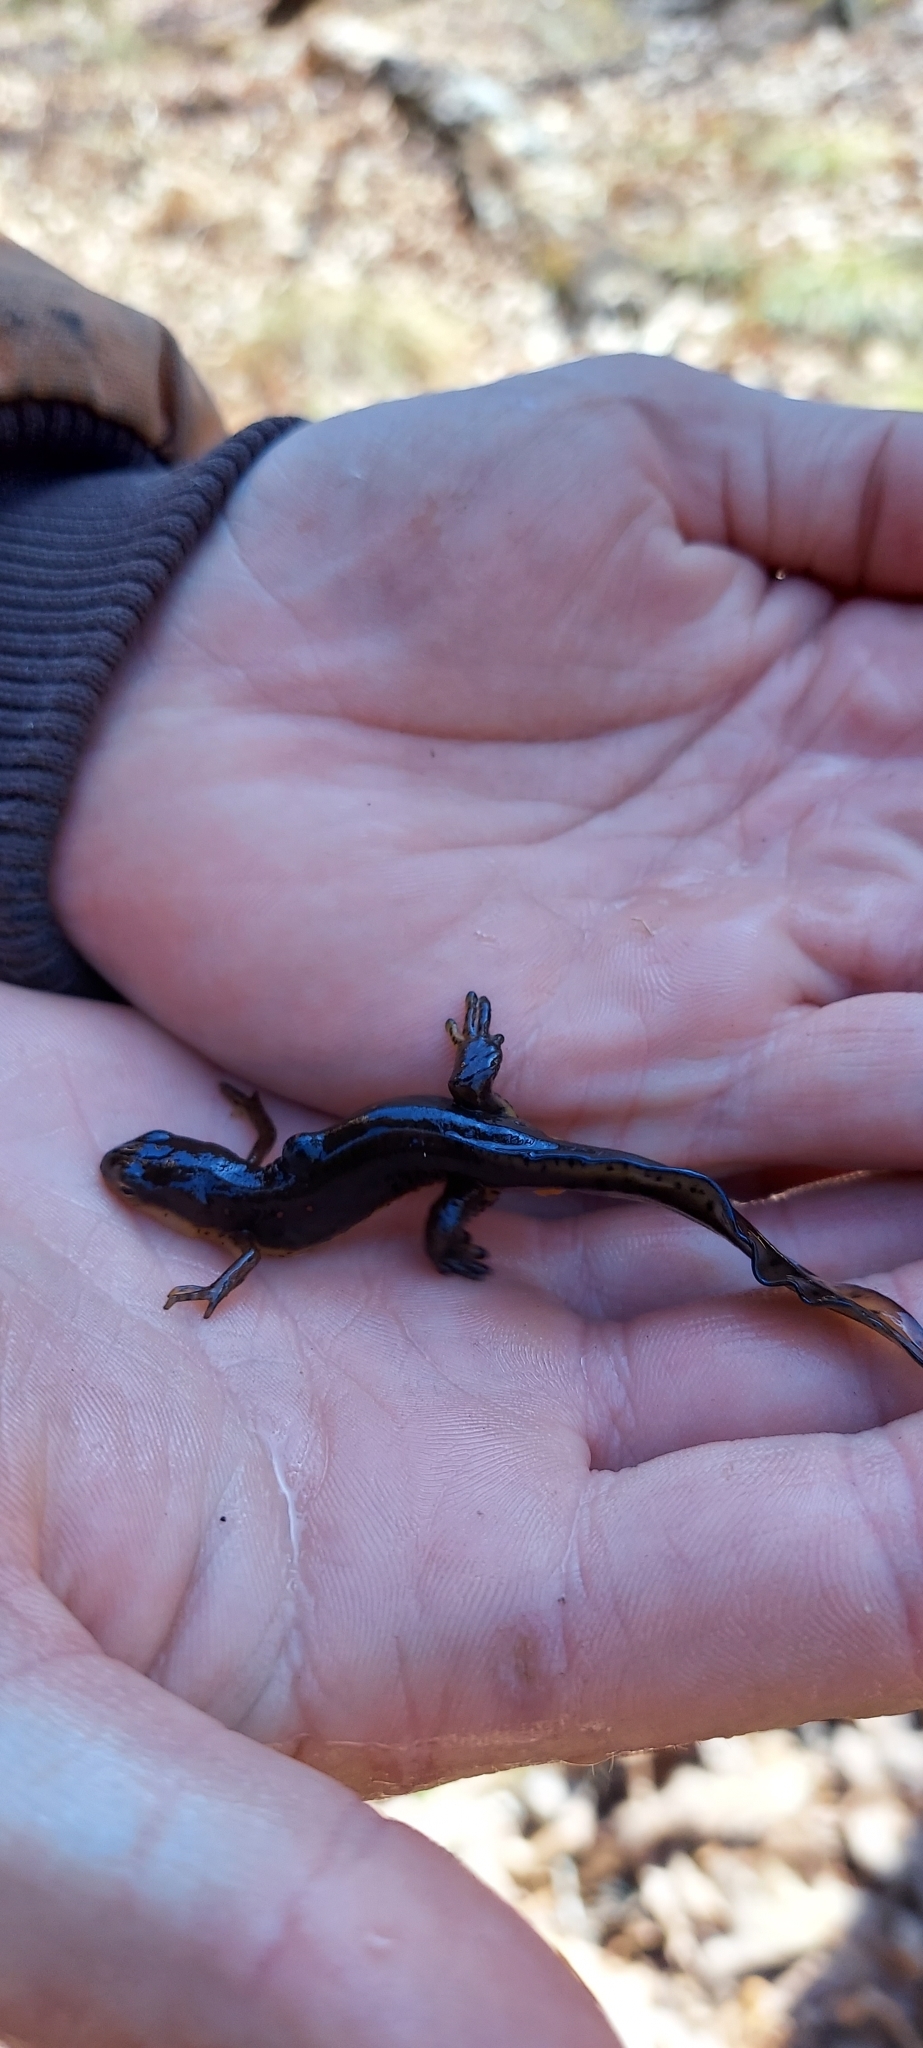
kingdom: Animalia
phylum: Chordata
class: Amphibia
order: Caudata
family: Salamandridae
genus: Notophthalmus
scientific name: Notophthalmus viridescens
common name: Eastern newt
